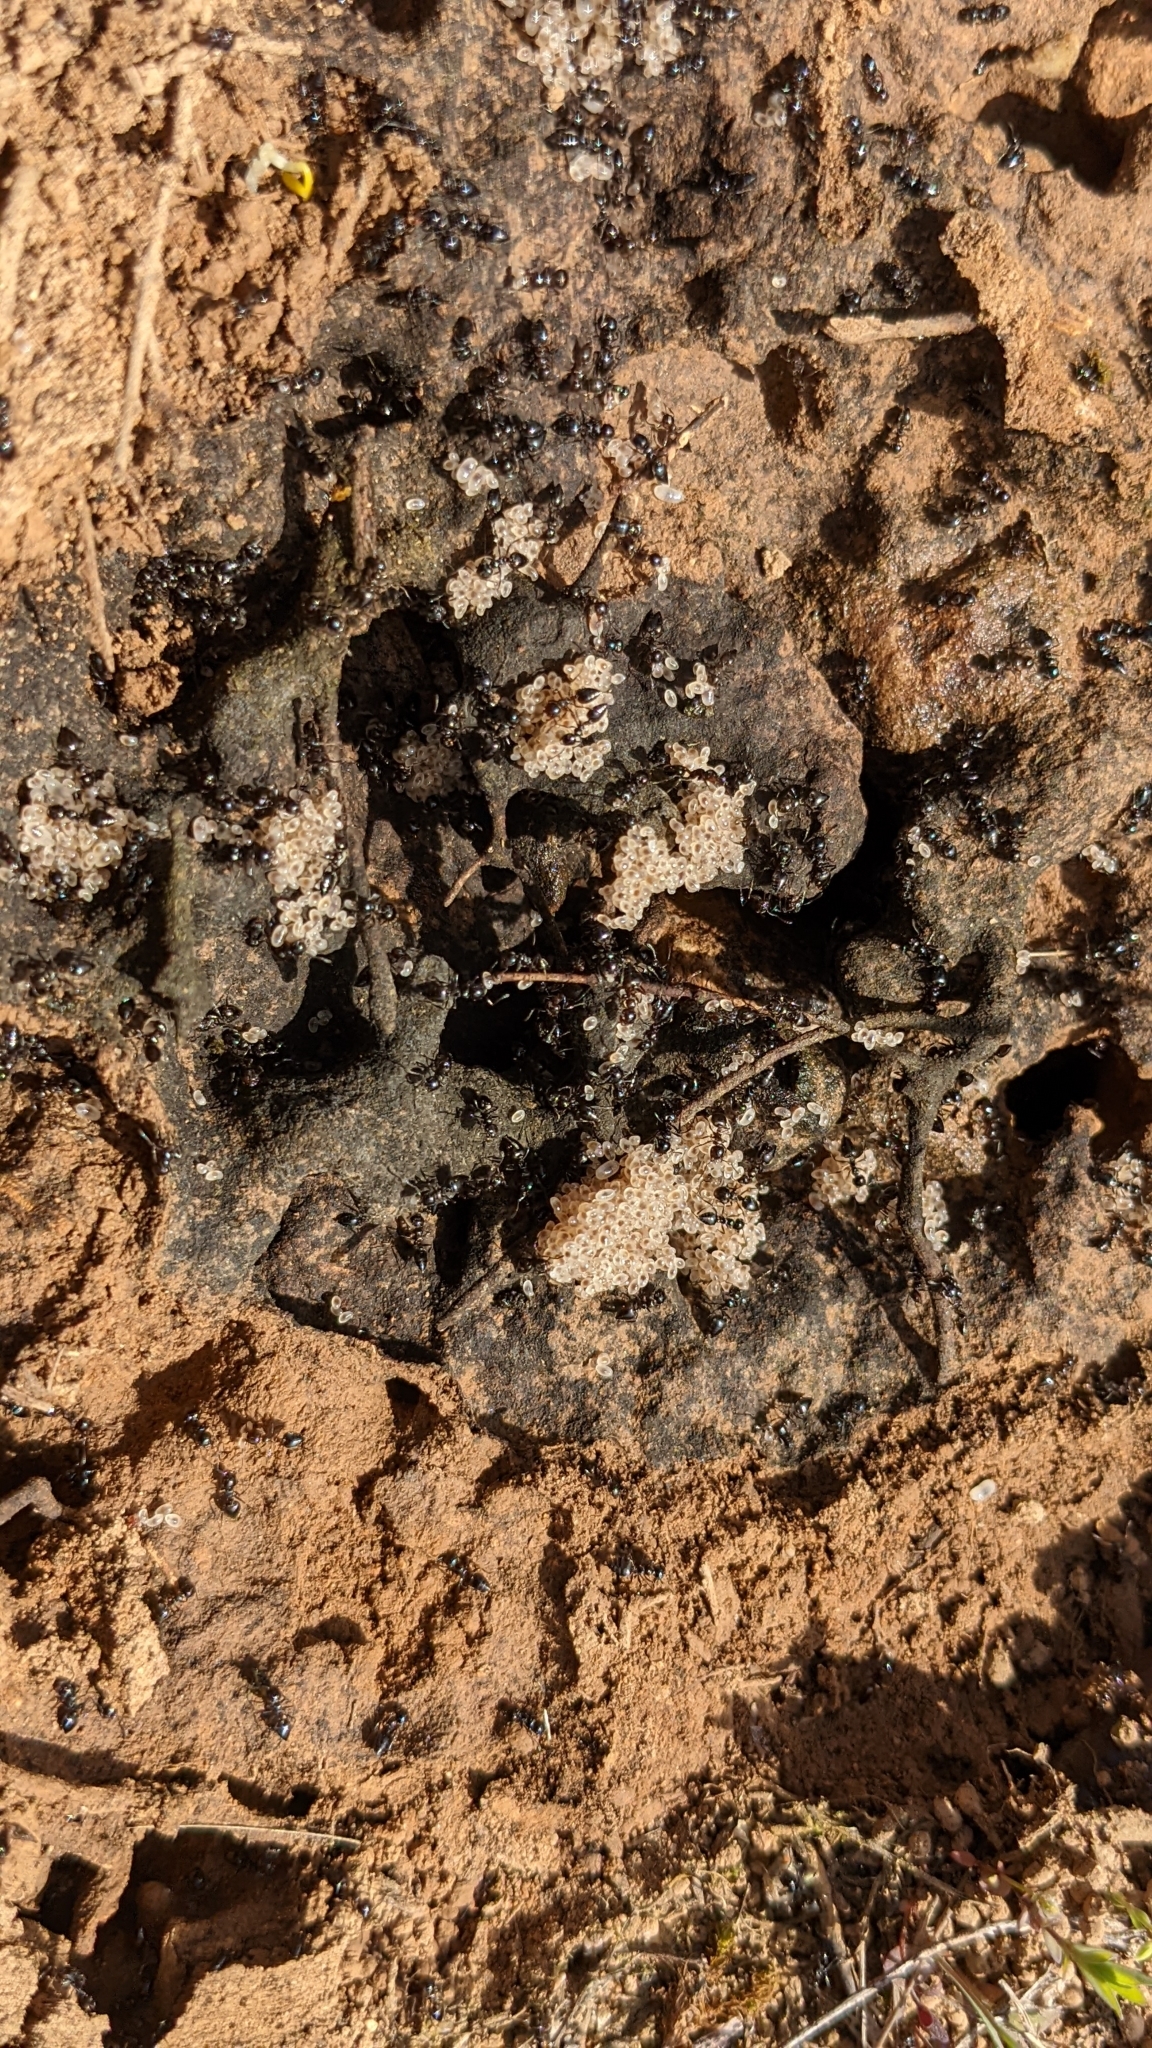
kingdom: Animalia
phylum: Arthropoda
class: Insecta
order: Hymenoptera
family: Formicidae
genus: Crematogaster
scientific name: Crematogaster auberti
